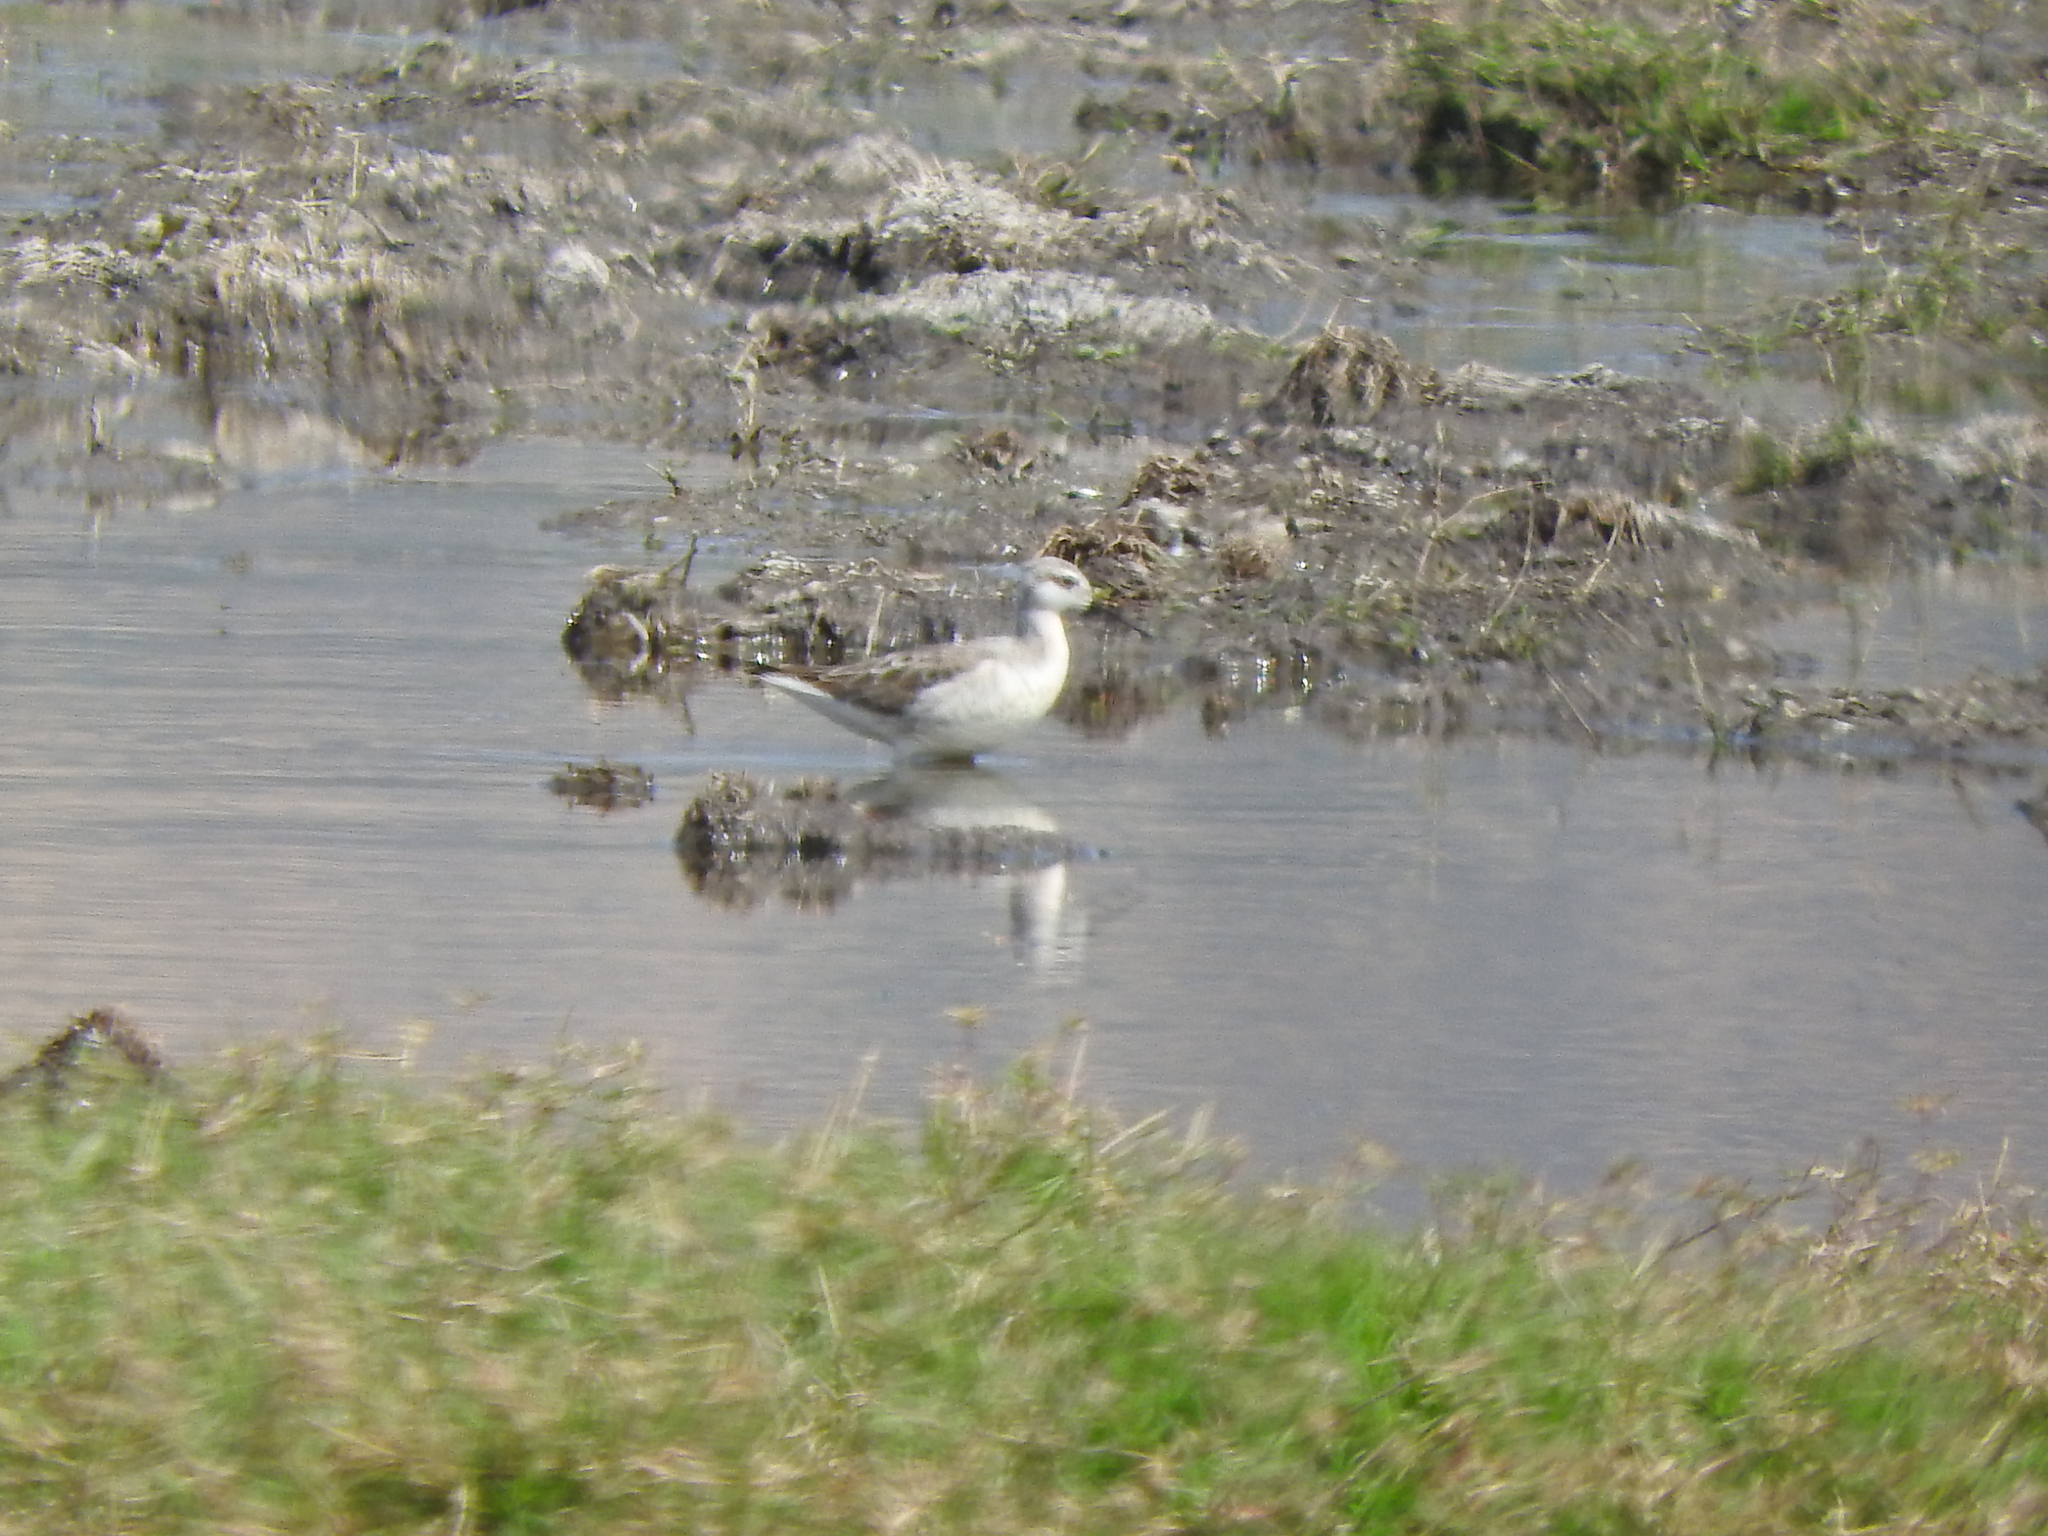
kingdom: Animalia
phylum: Chordata
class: Aves
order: Charadriiformes
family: Scolopacidae
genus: Phalaropus
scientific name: Phalaropus tricolor
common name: Wilson's phalarope
